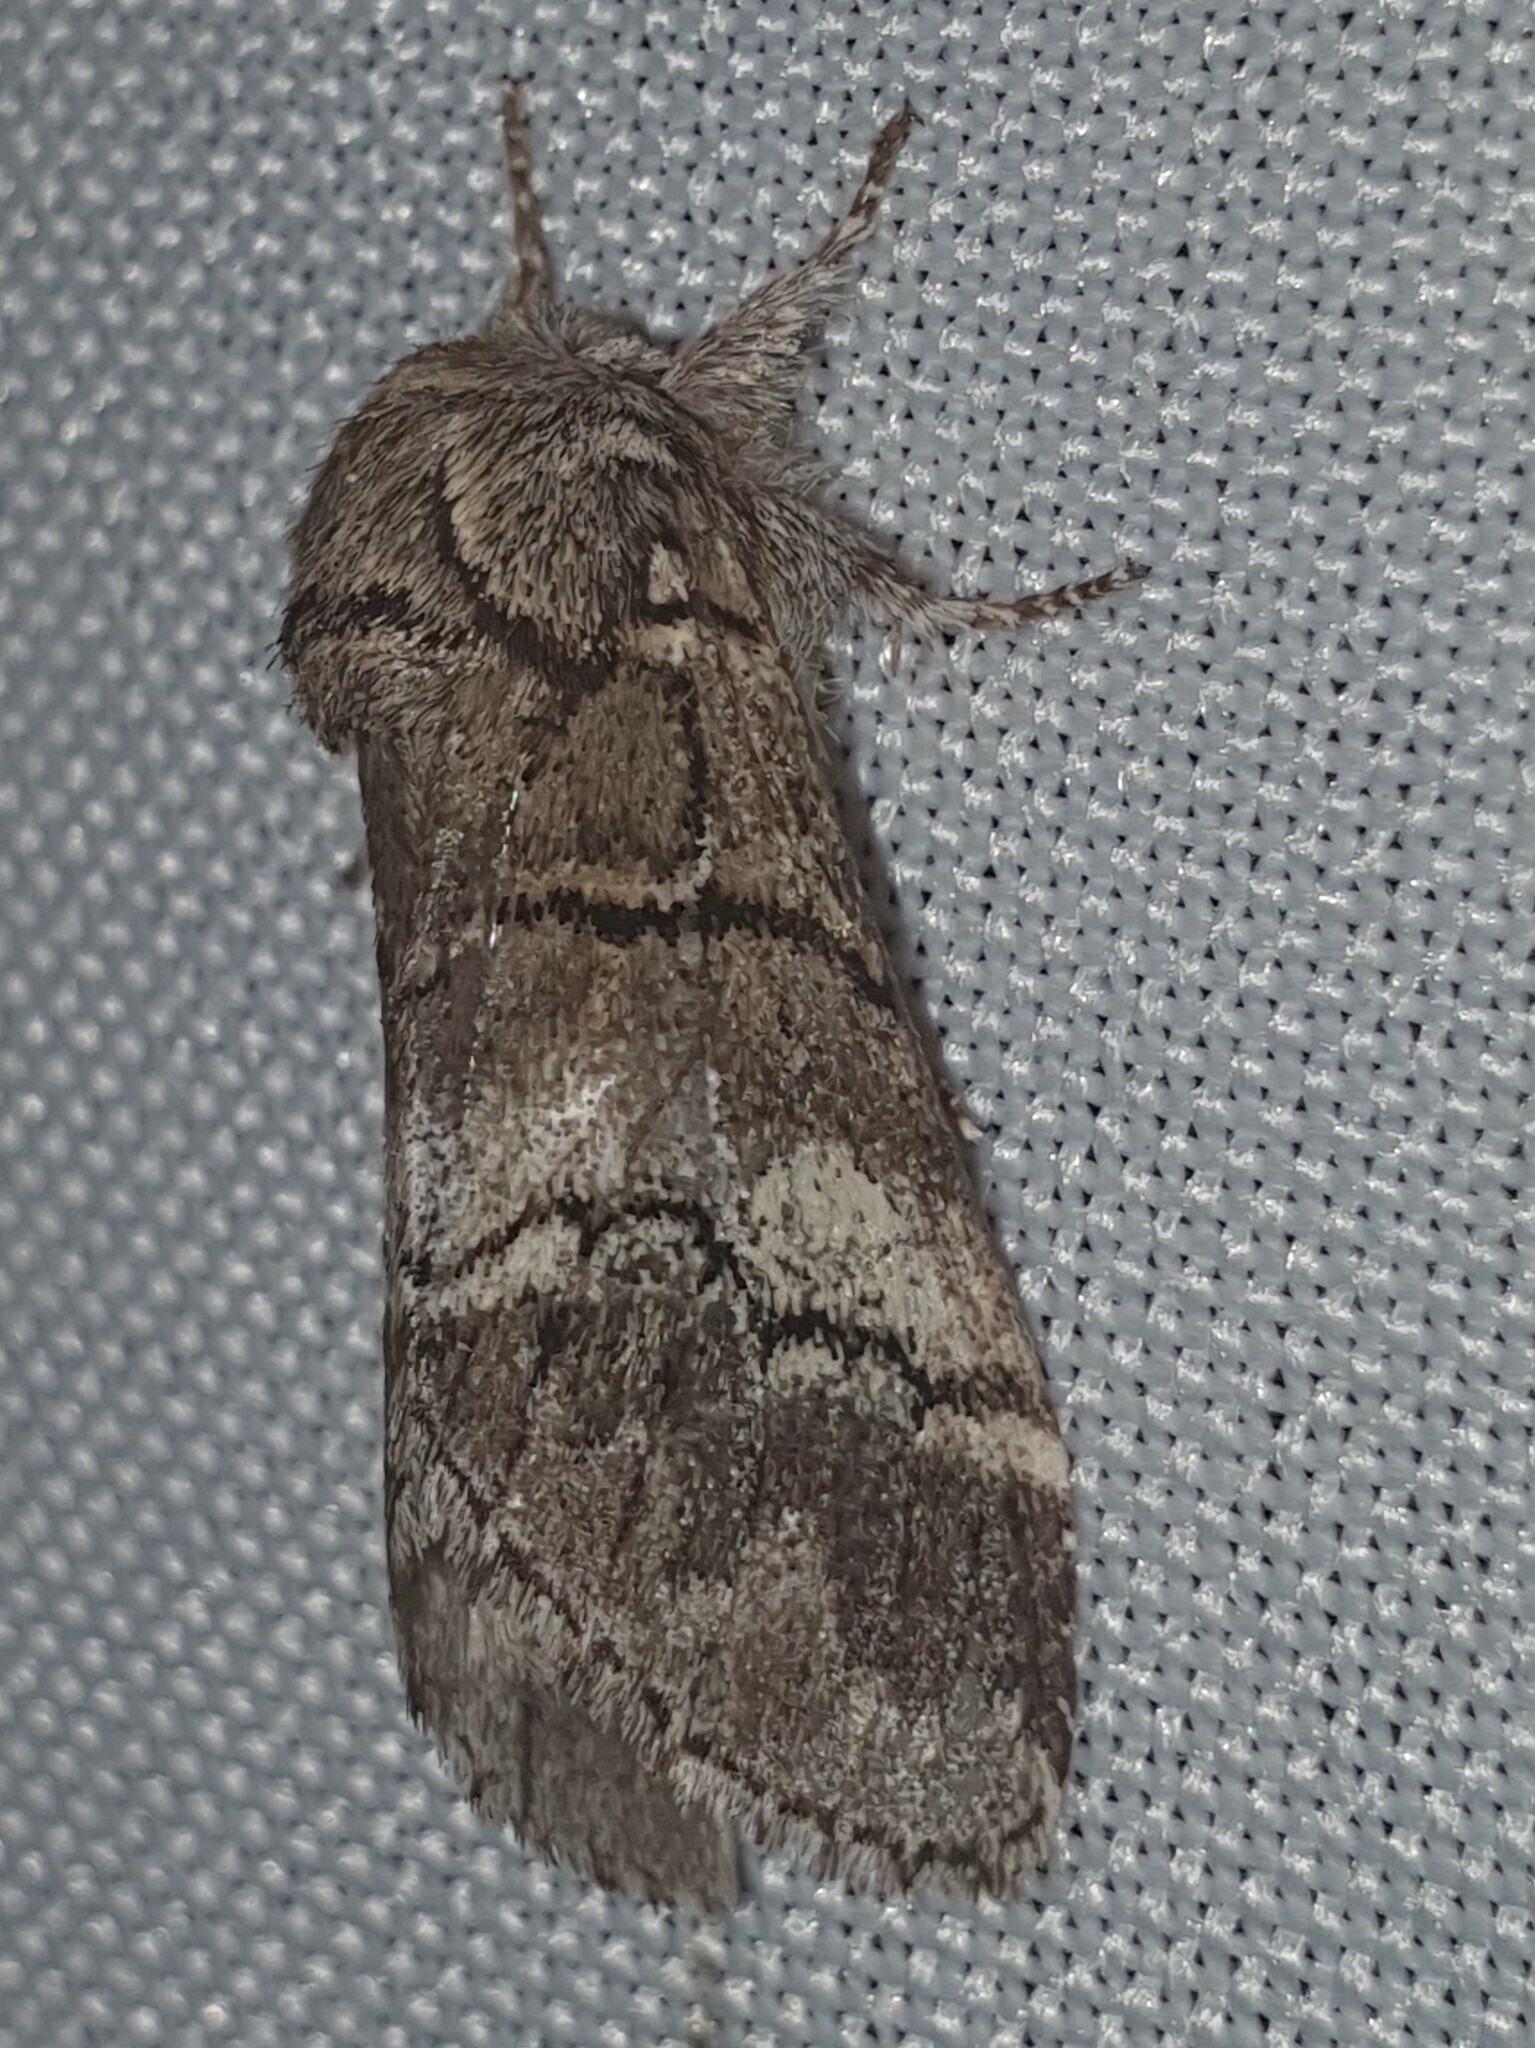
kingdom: Animalia
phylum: Arthropoda
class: Insecta
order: Lepidoptera
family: Notodontidae
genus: Drymonia
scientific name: Drymonia querna
